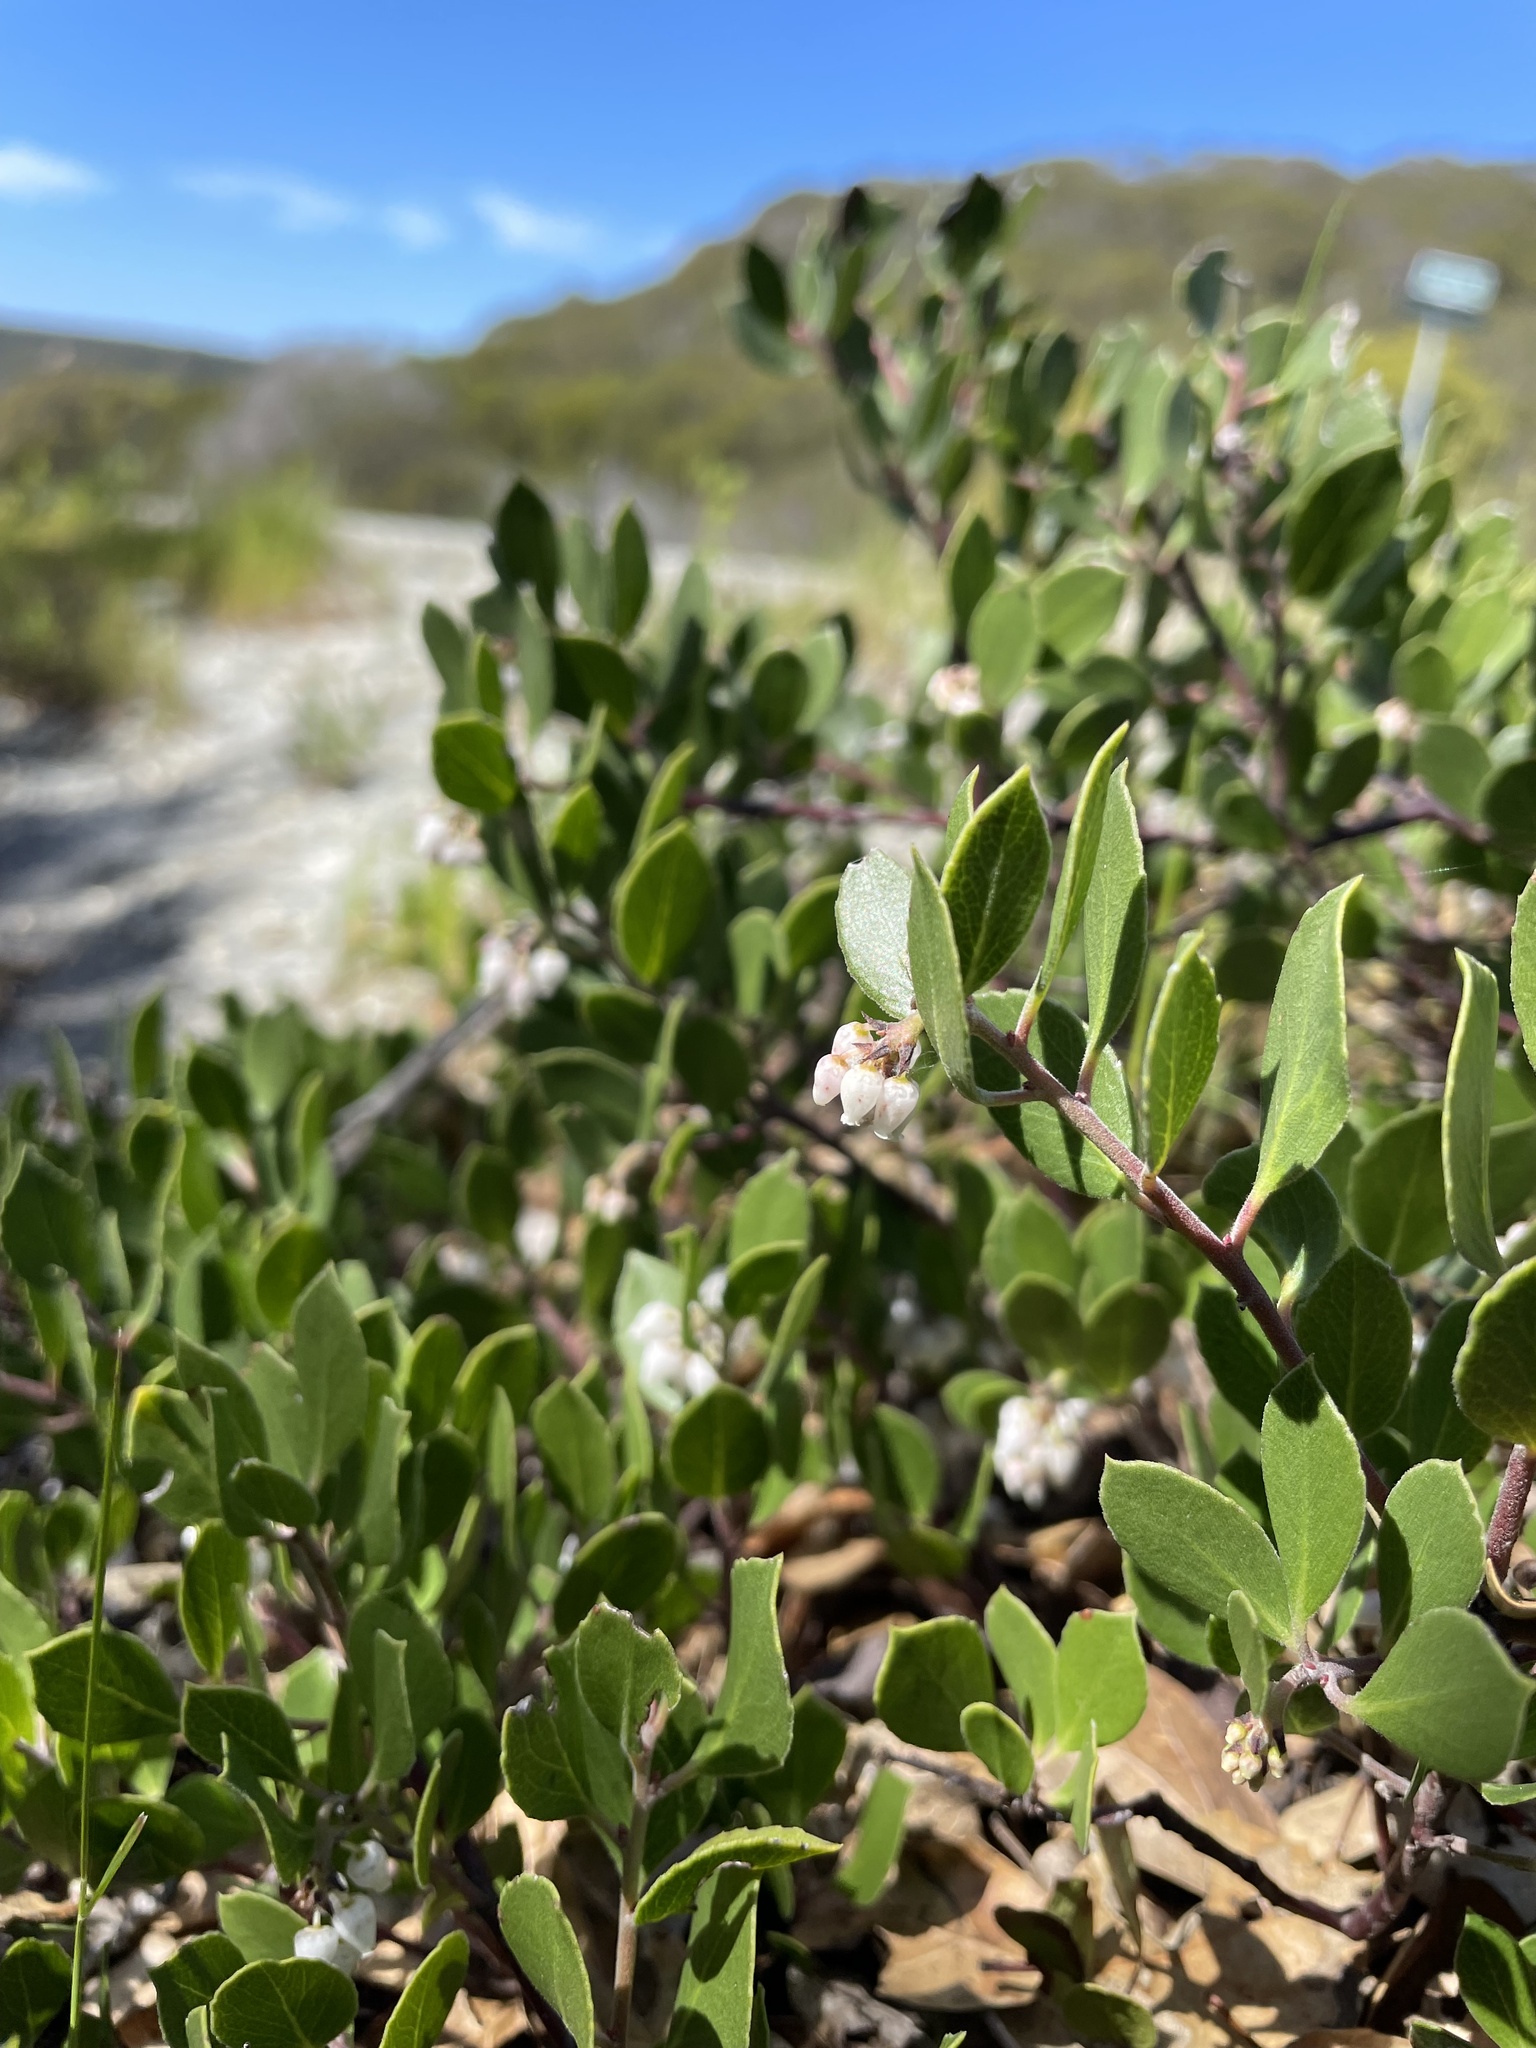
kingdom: Plantae
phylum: Tracheophyta
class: Magnoliopsida
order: Ericales
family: Ericaceae
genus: Arctostaphylos
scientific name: Arctostaphylos hookeri
